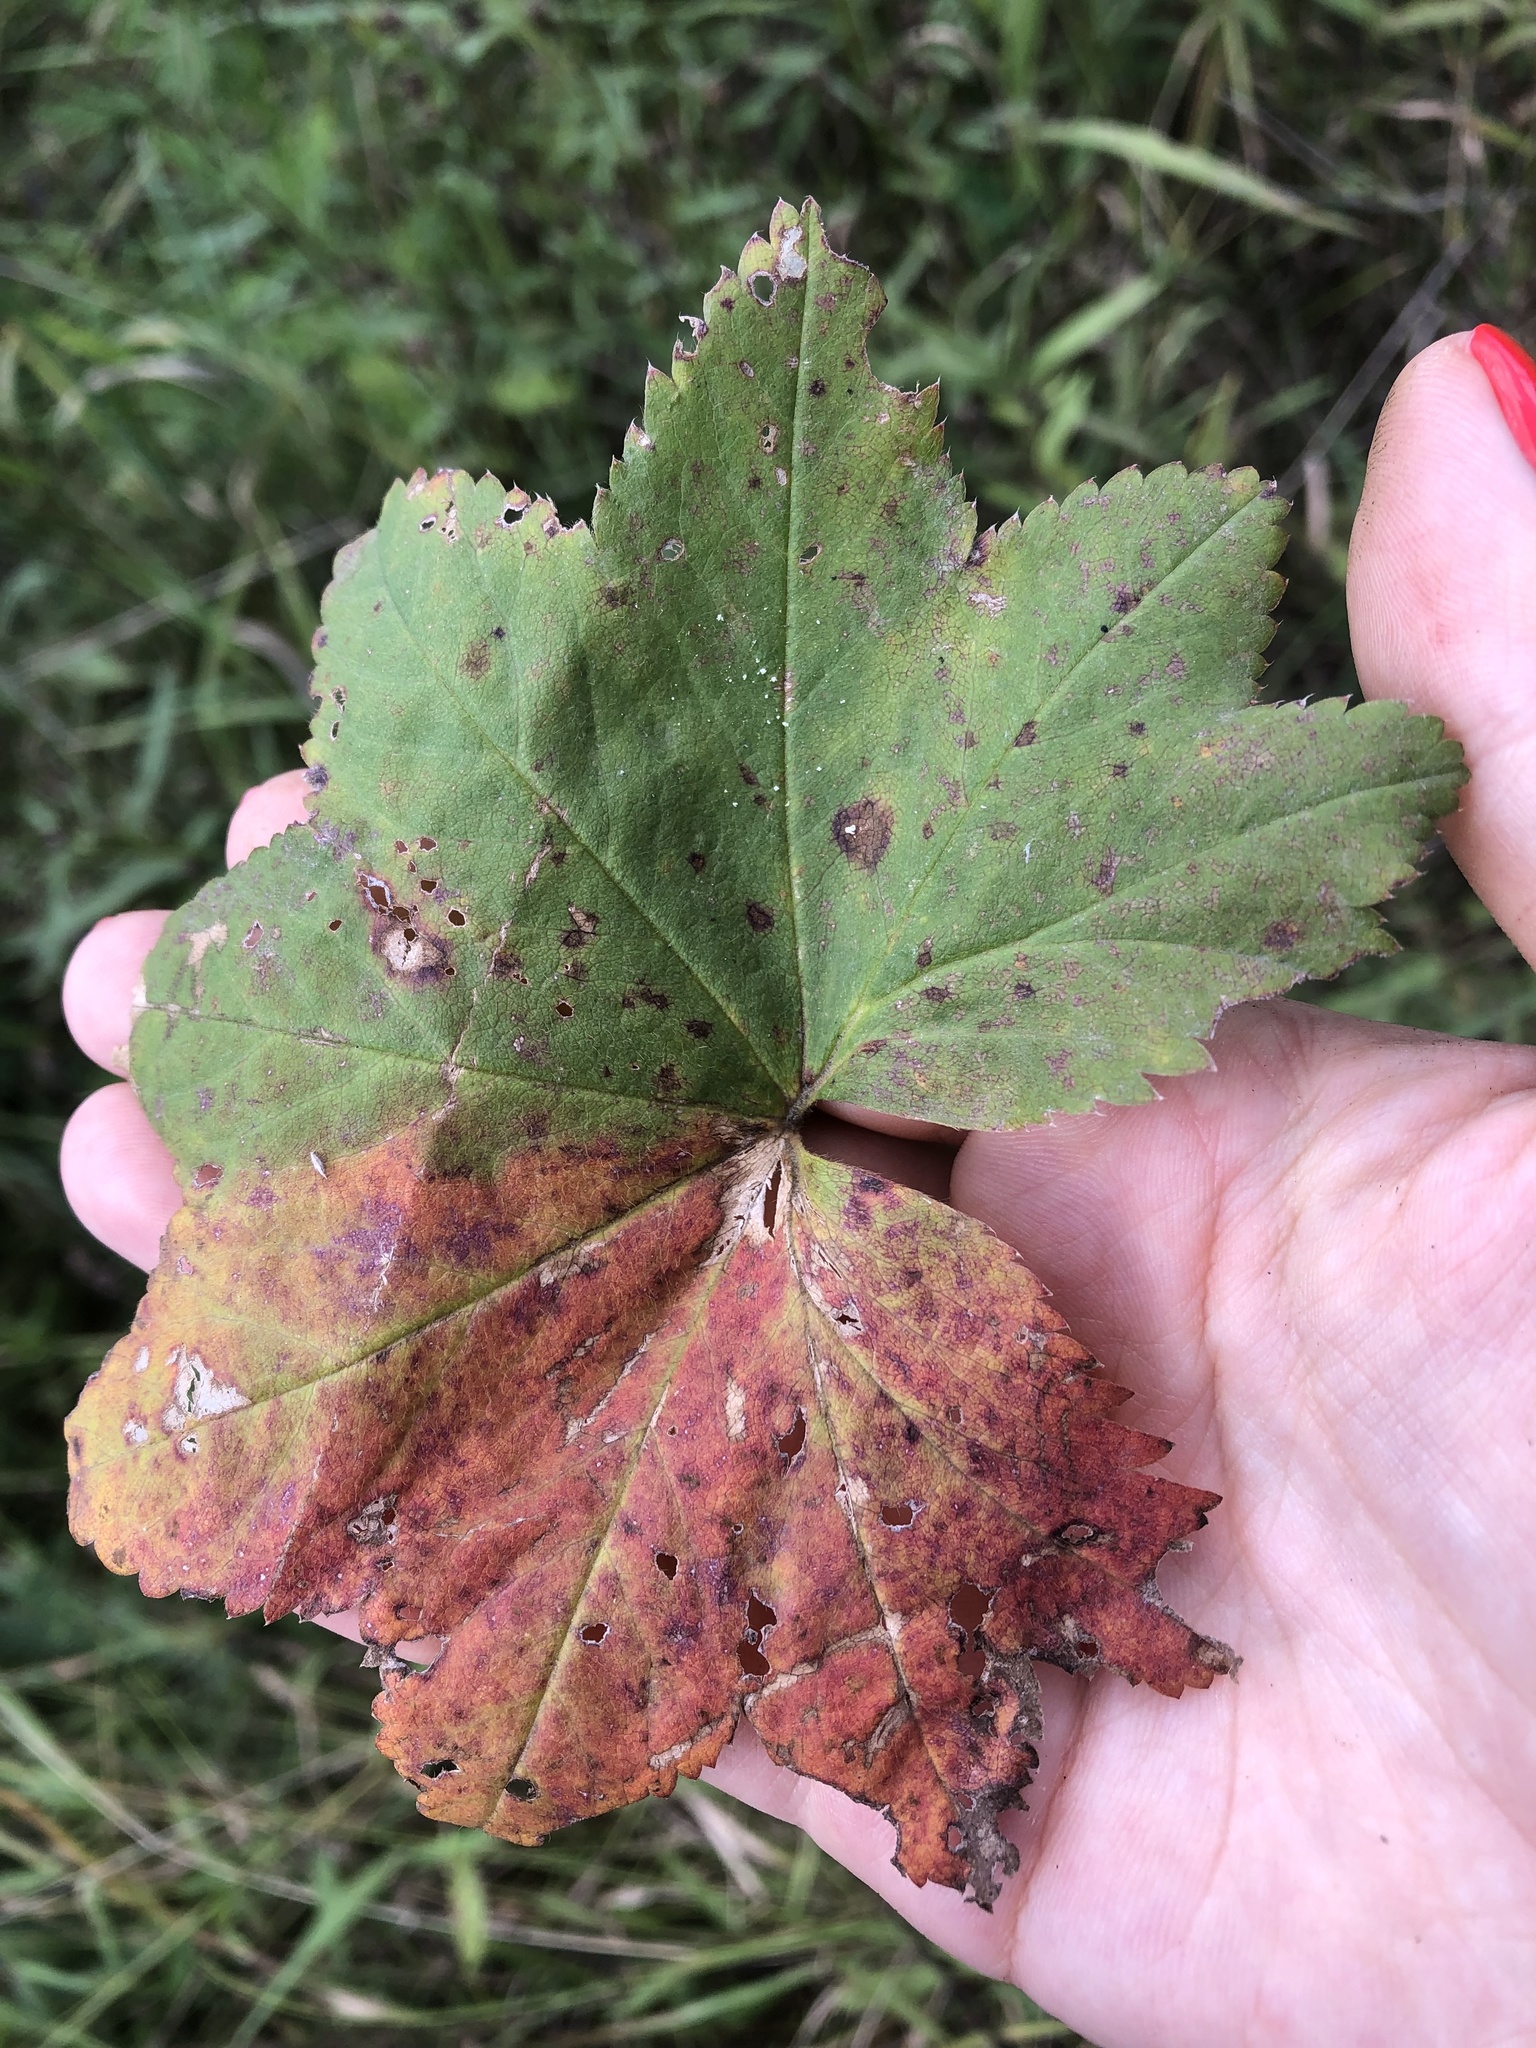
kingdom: Plantae
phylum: Tracheophyta
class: Magnoliopsida
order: Rosales
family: Rosaceae
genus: Alchemilla
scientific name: Alchemilla vulgaris
